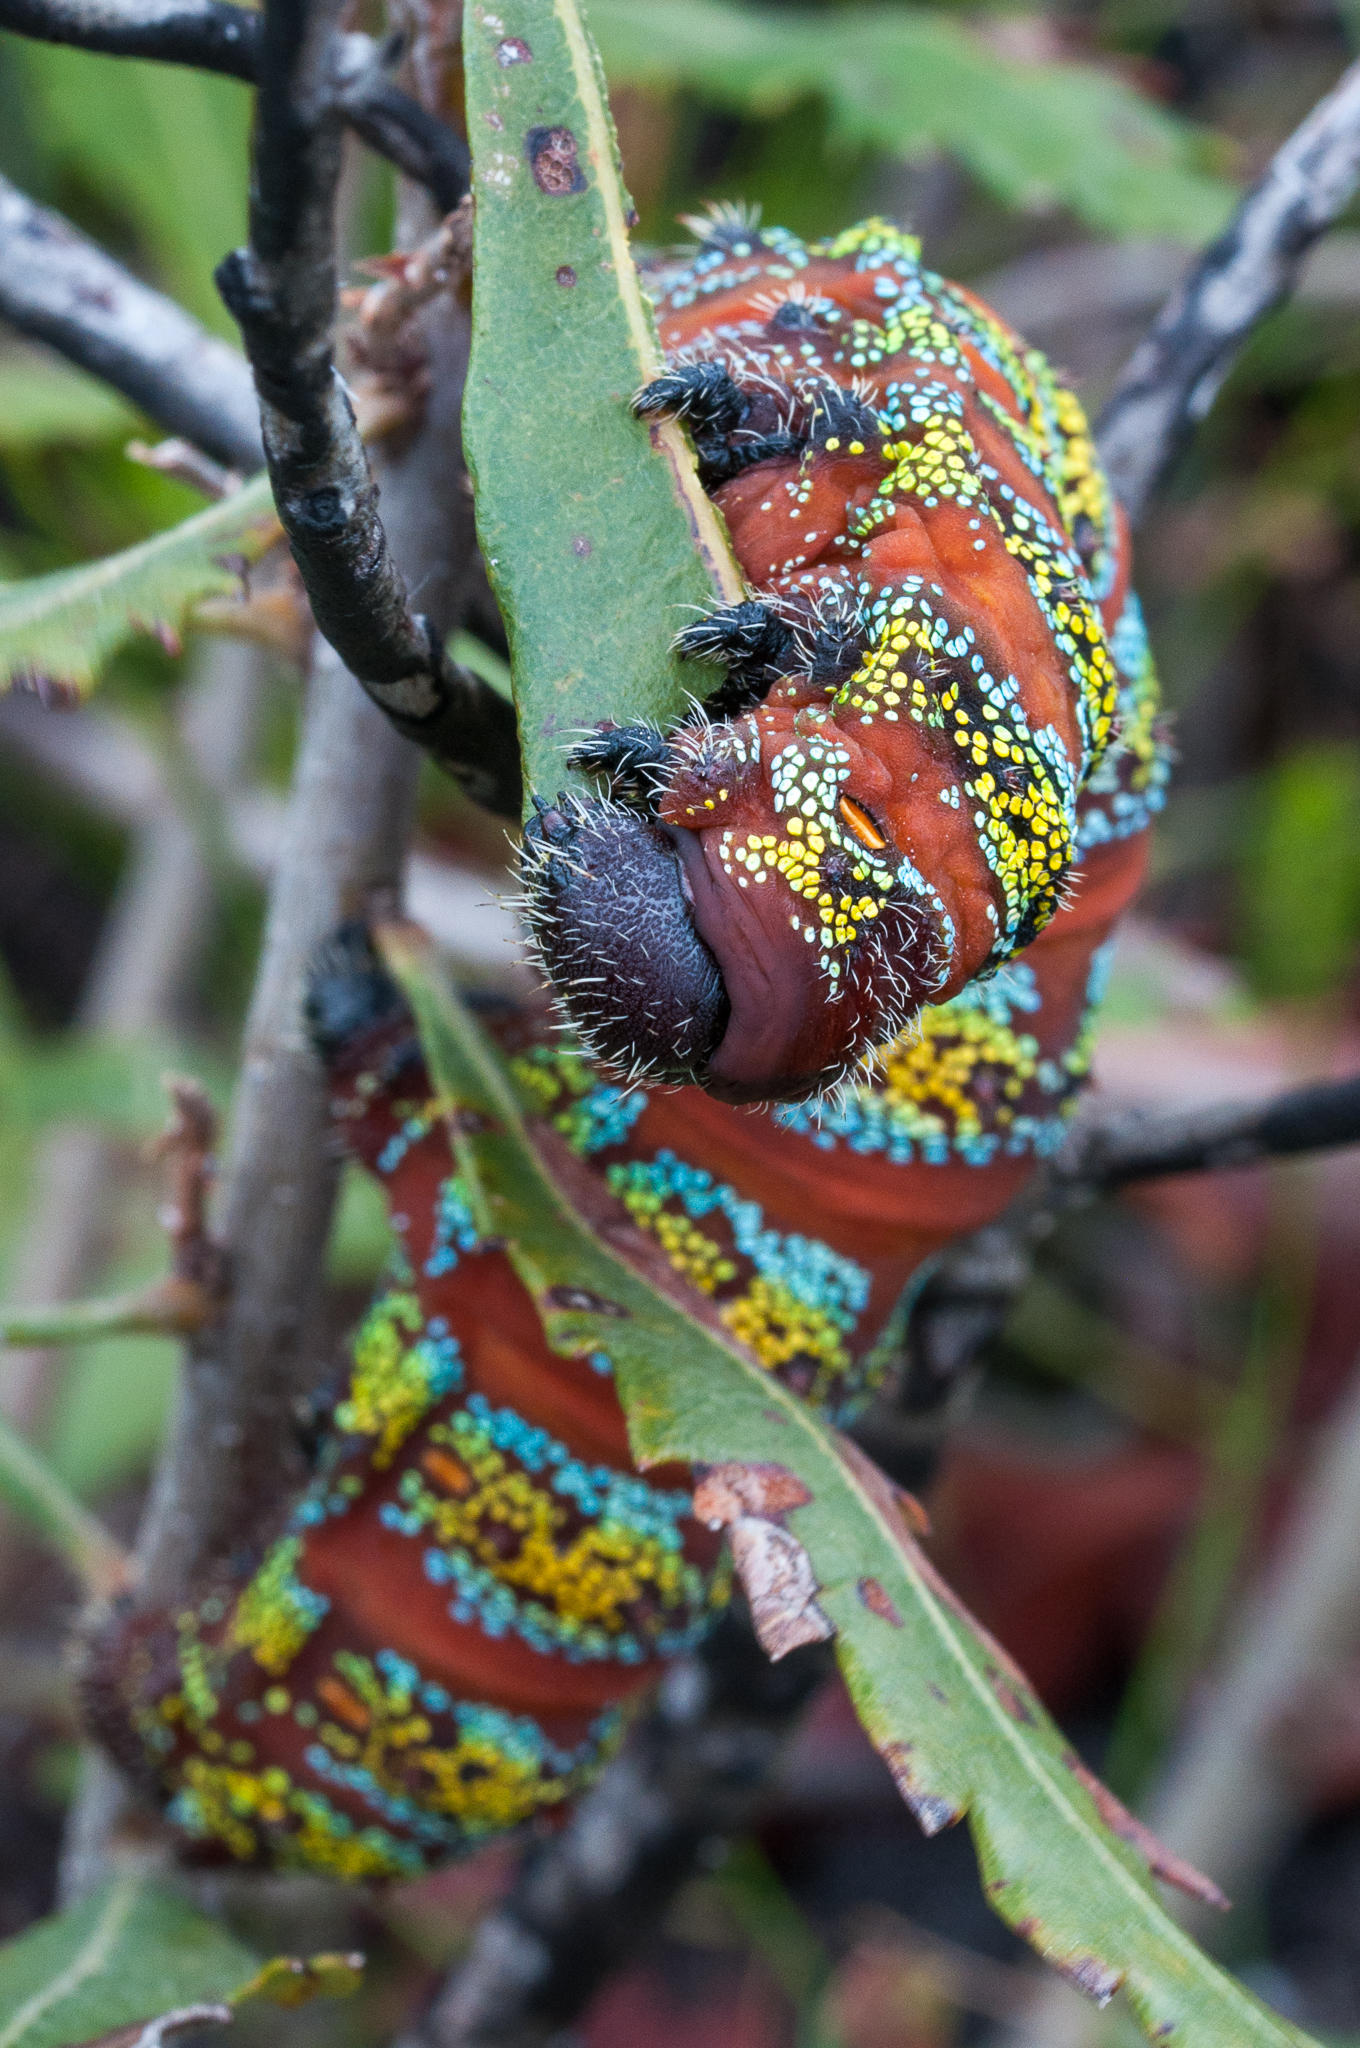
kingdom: Animalia
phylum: Arthropoda
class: Insecta
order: Lepidoptera
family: Saturniidae
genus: Nudaurelia
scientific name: Nudaurelia cytherea
